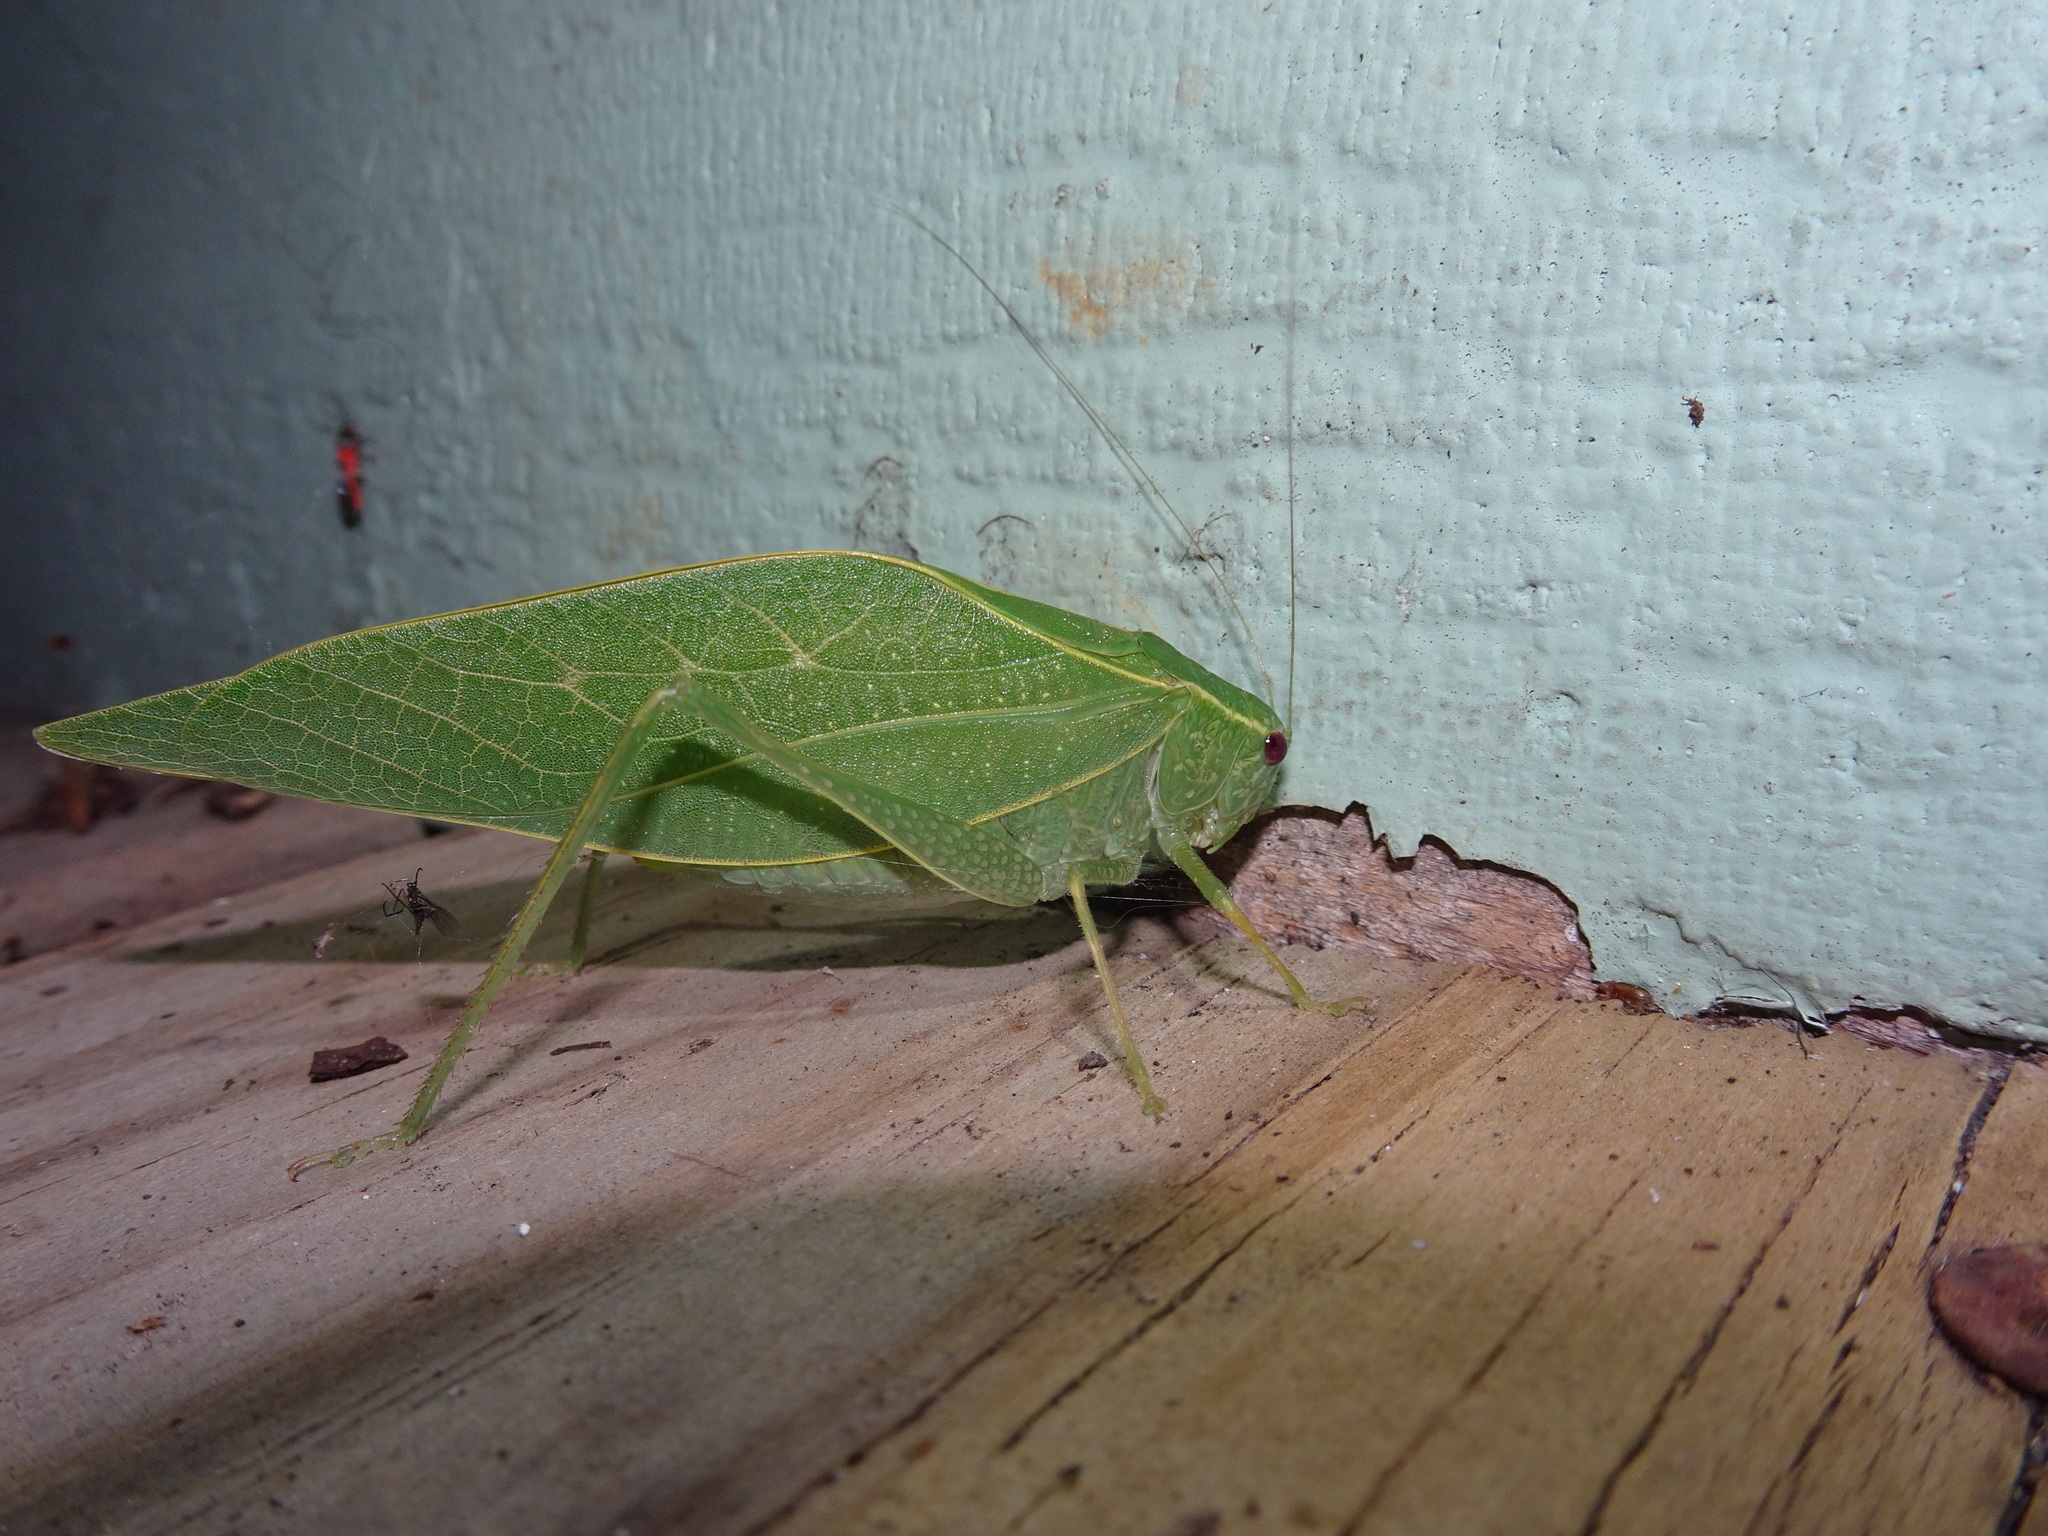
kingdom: Animalia
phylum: Arthropoda
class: Insecta
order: Orthoptera
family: Tettigoniidae
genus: Microcentrum
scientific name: Microcentrum rhombifolium
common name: Broad-winged katydid
